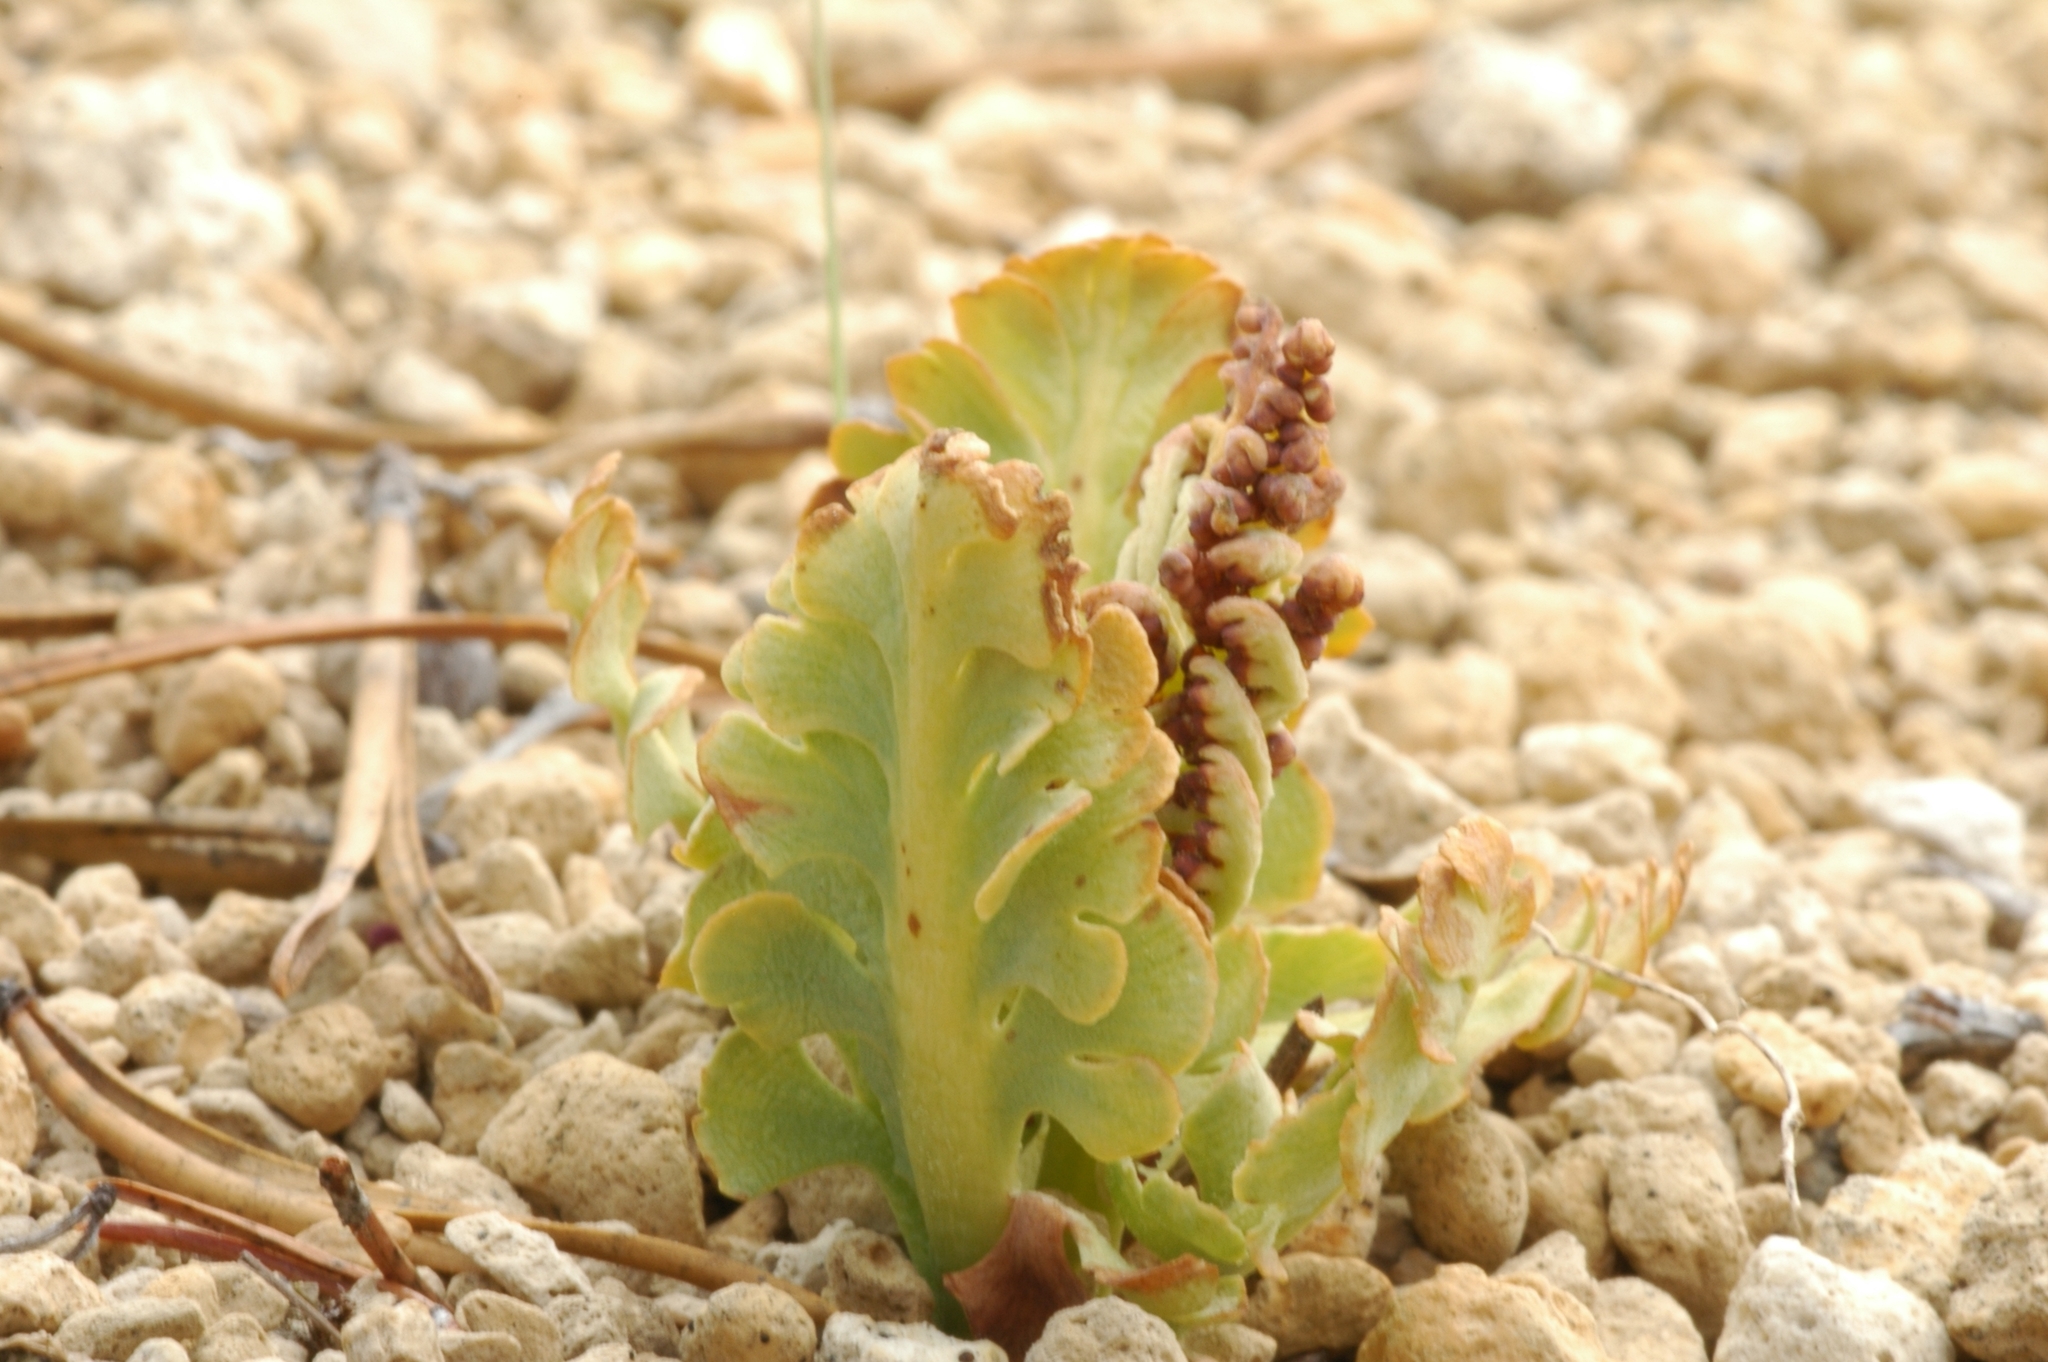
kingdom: Plantae
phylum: Tracheophyta
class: Polypodiopsida
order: Ophioglossales
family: Ophioglossaceae
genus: Botrychium
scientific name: Botrychium pumicola
